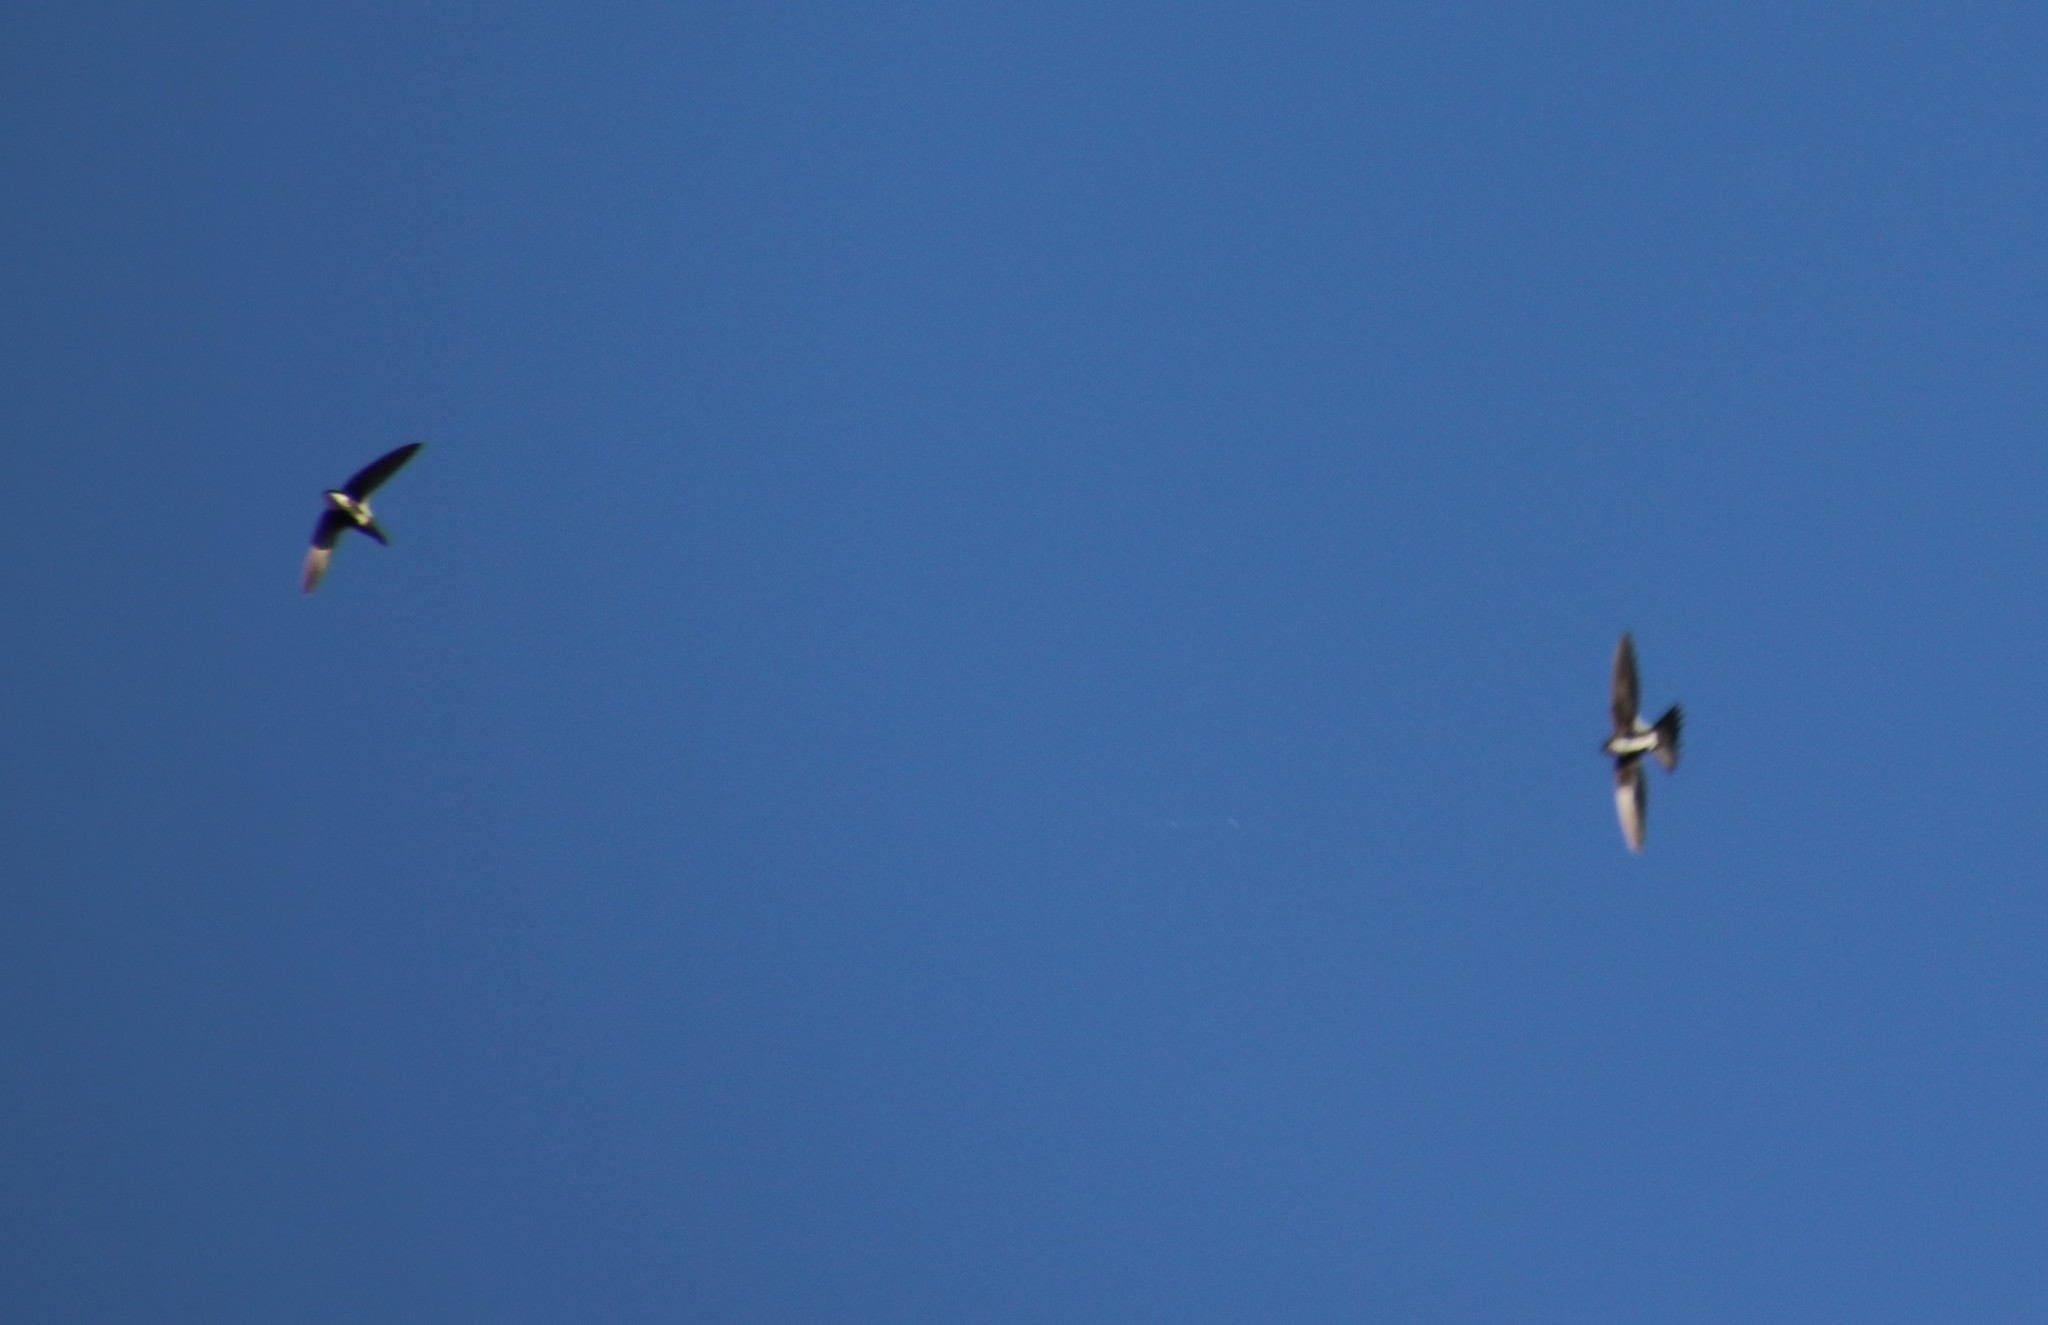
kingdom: Animalia
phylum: Chordata
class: Aves
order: Apodiformes
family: Apodidae
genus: Aeronautes
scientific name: Aeronautes saxatalis
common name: White-throated swift
